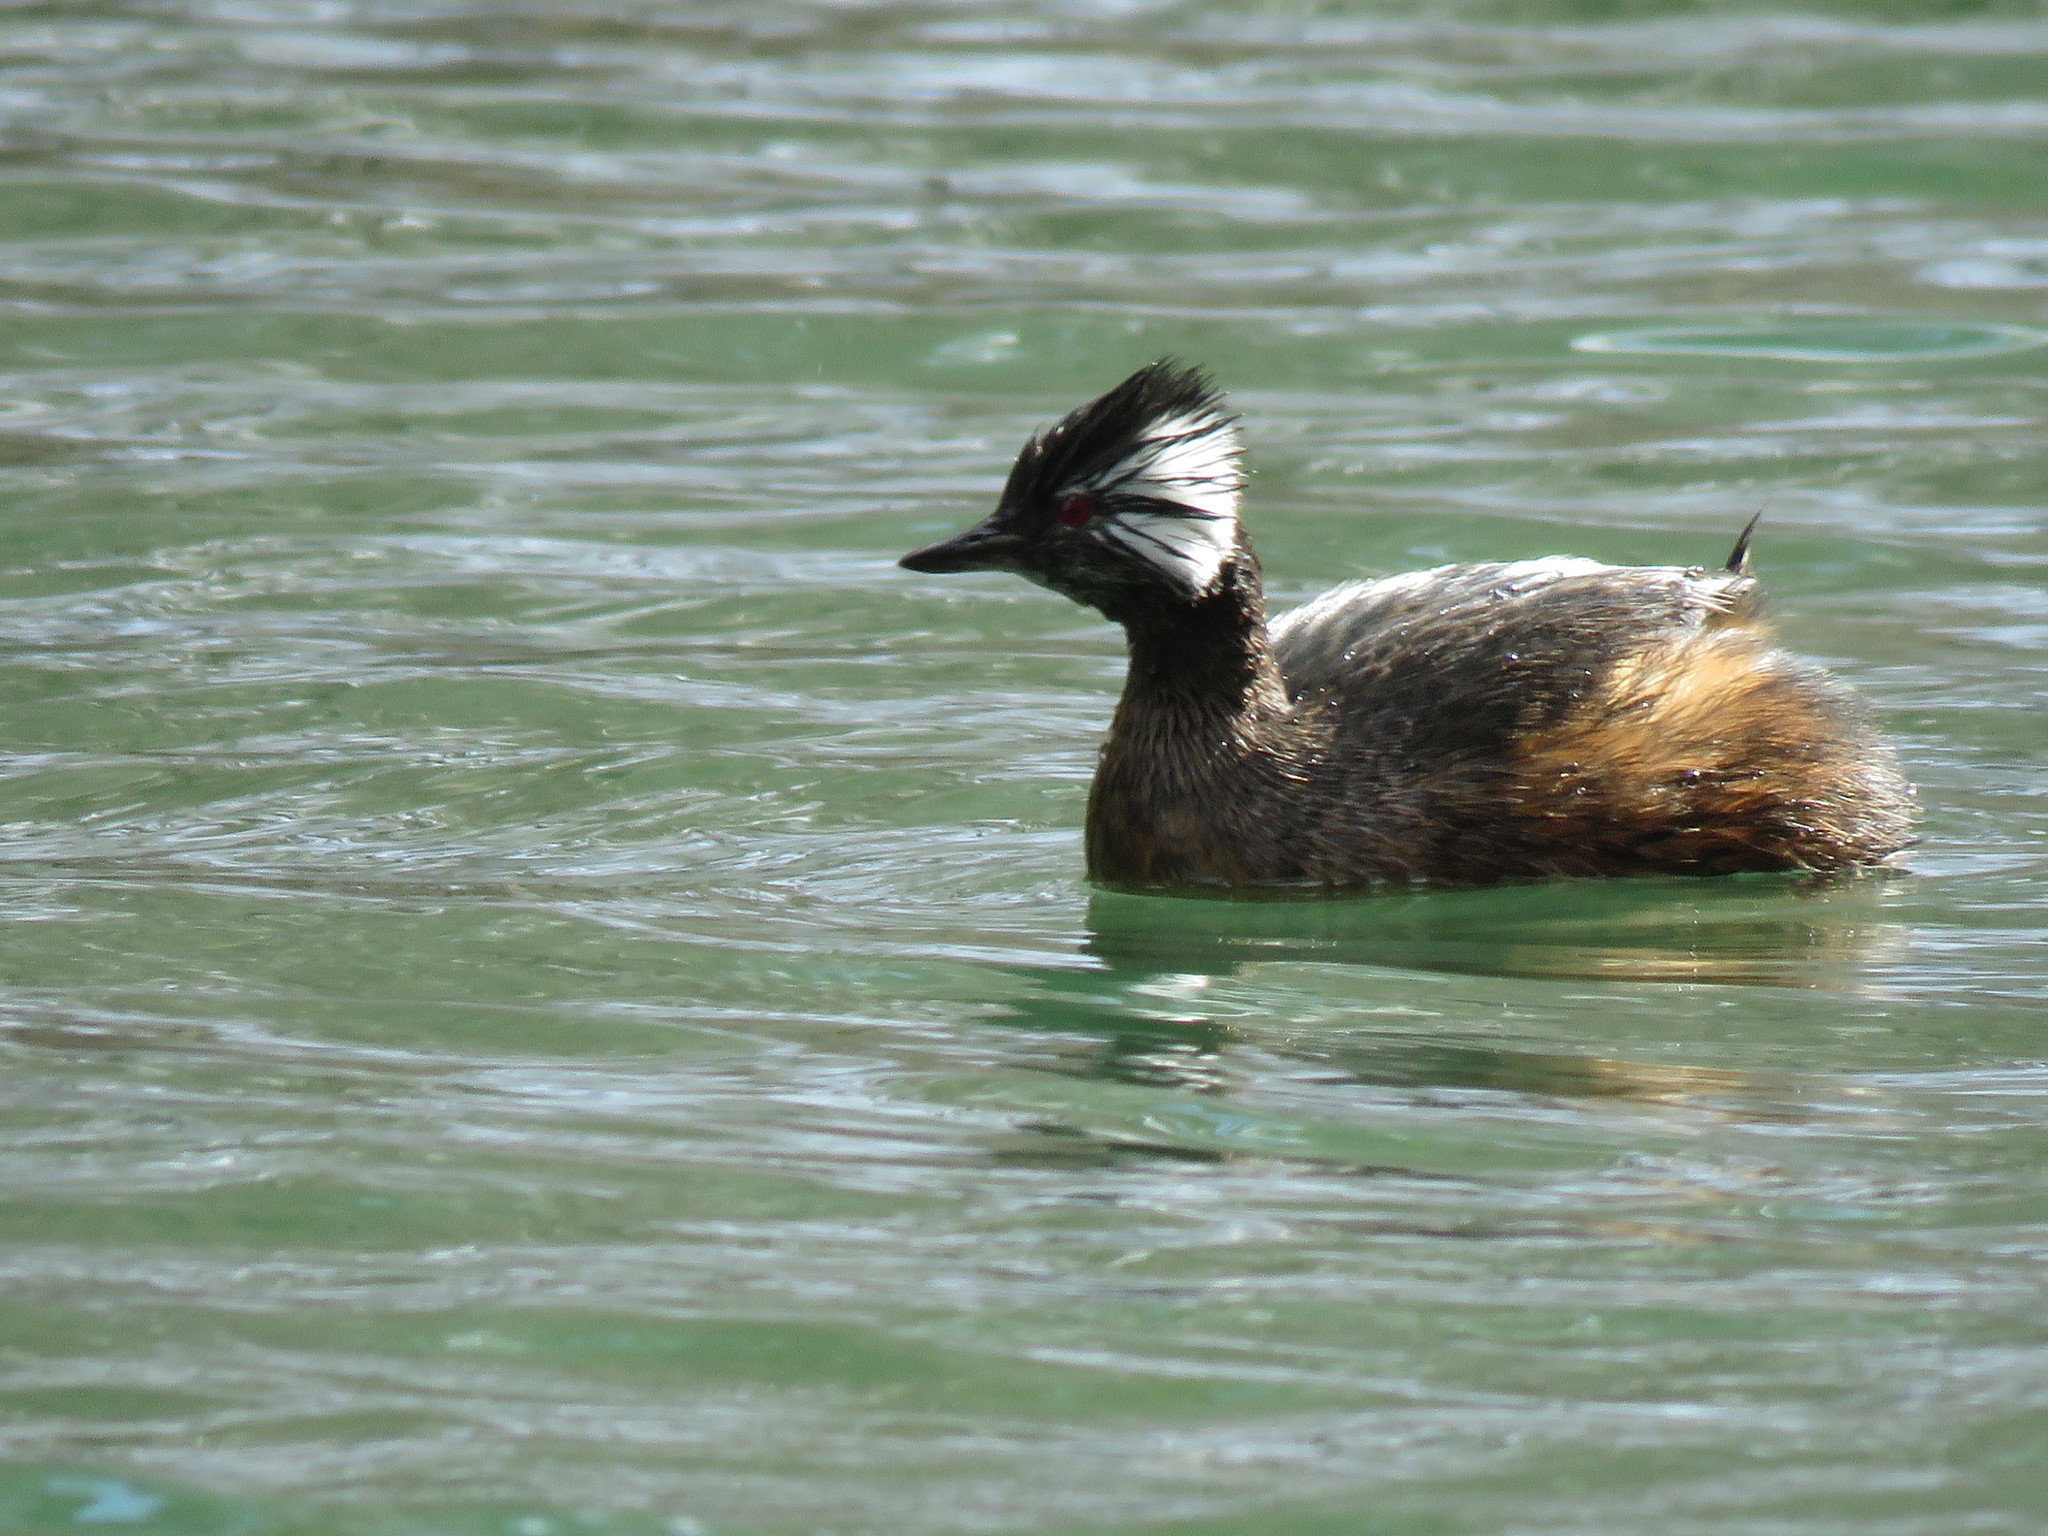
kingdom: Animalia
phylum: Chordata
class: Aves
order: Podicipediformes
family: Podicipedidae
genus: Rollandia
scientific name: Rollandia rolland
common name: White-tufted grebe
